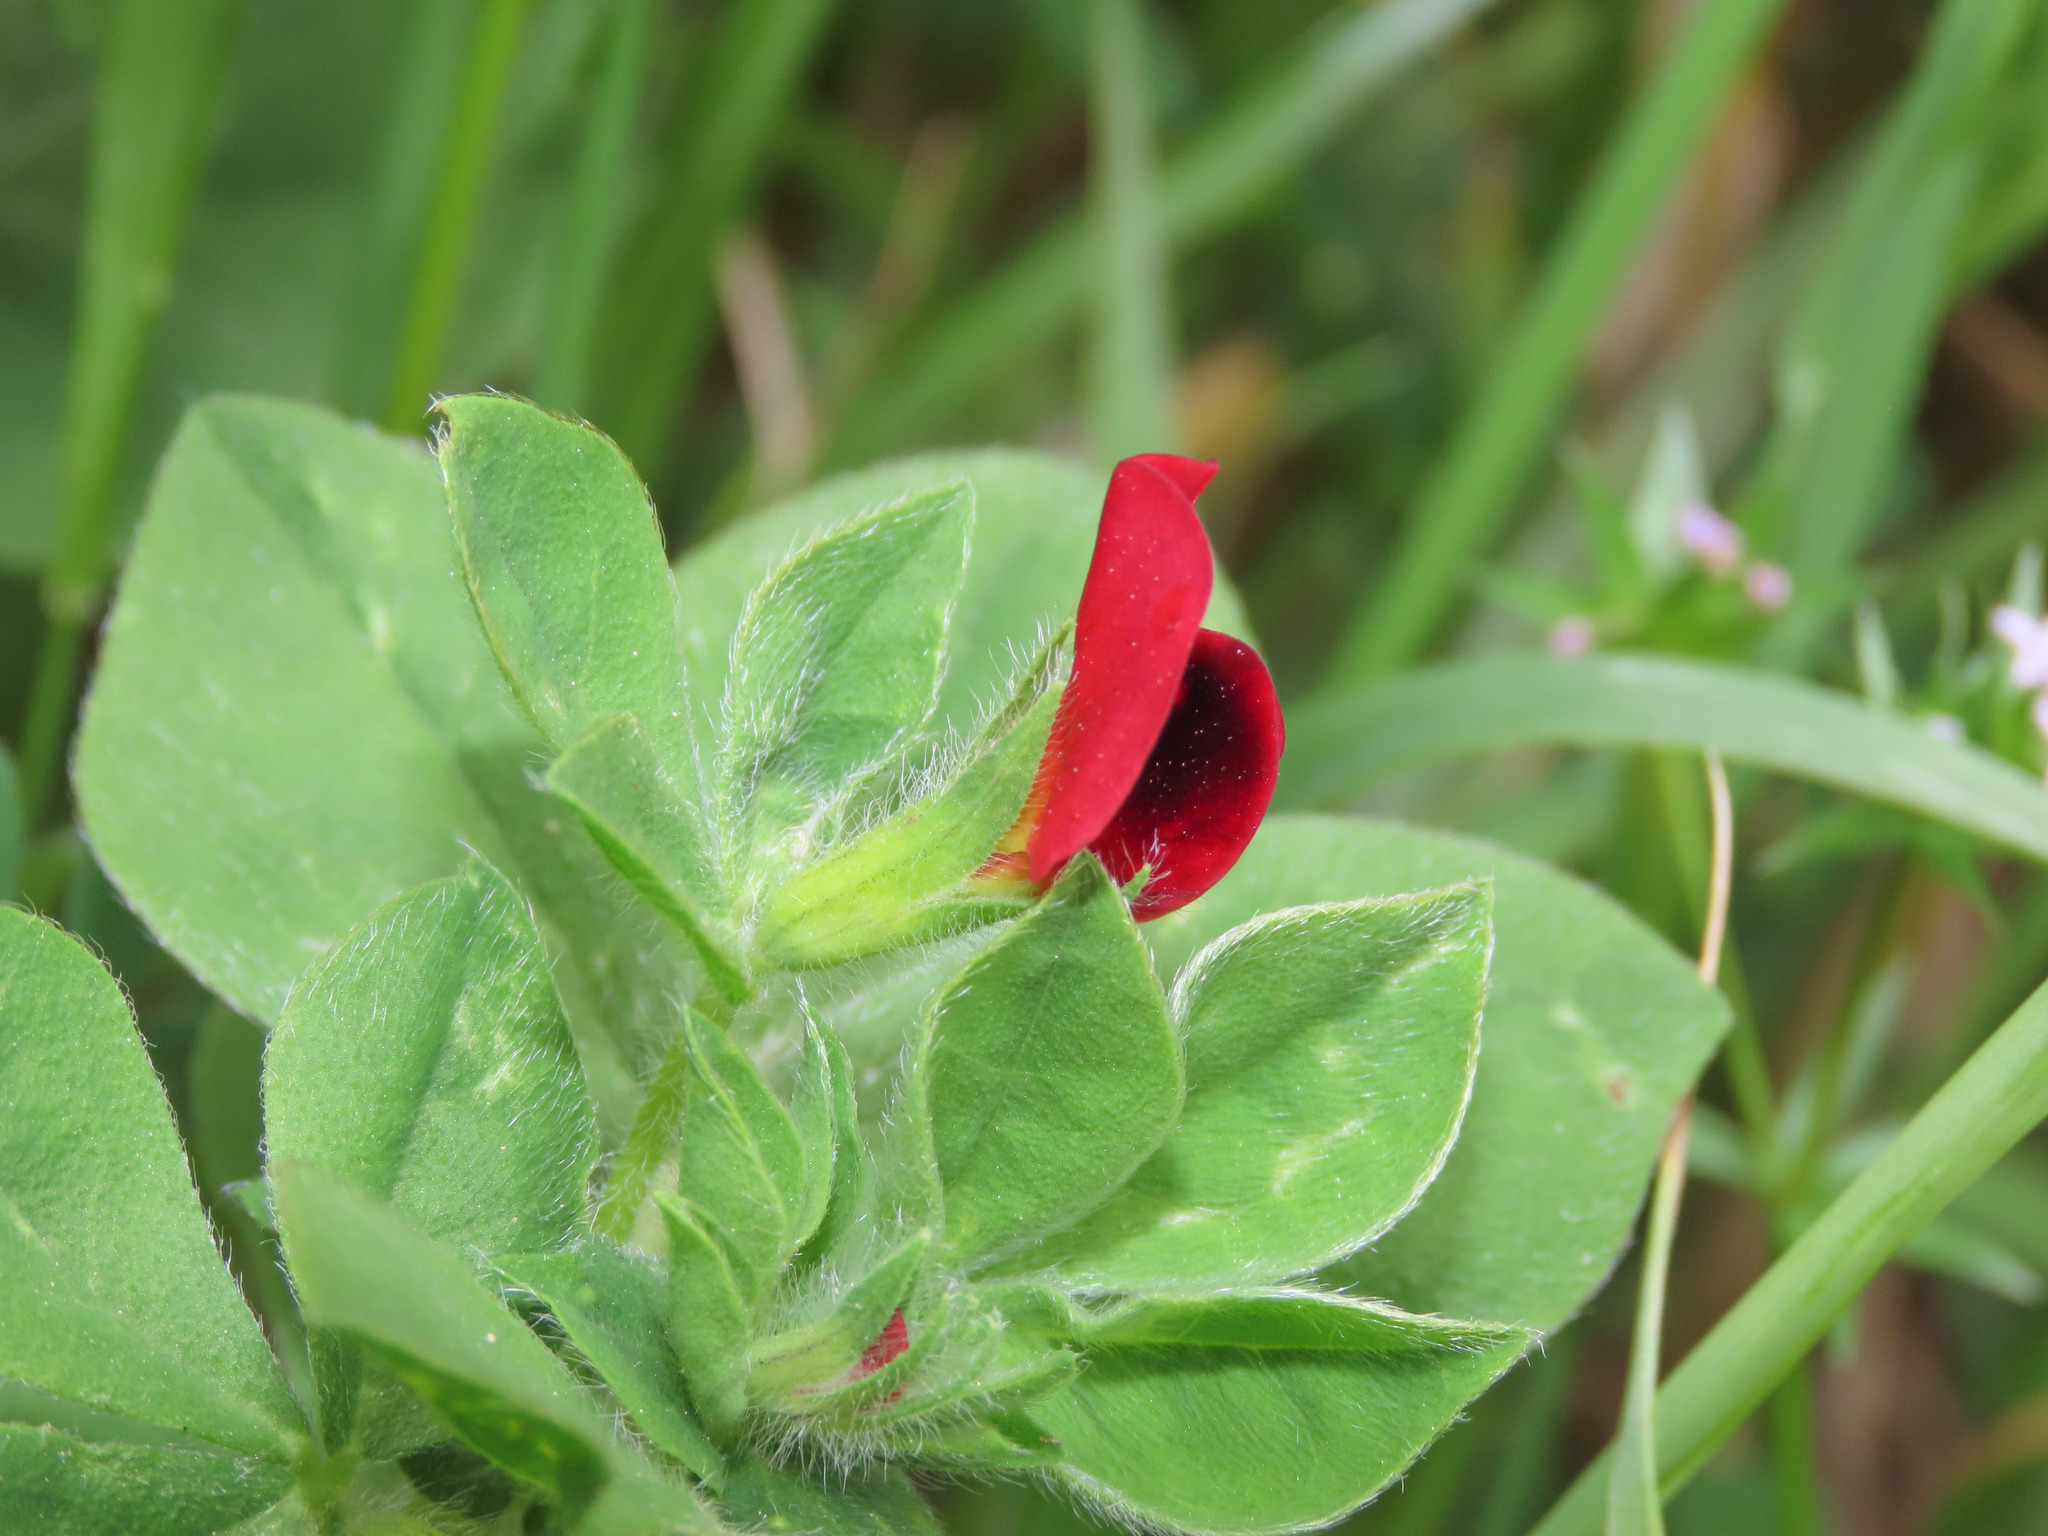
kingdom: Plantae
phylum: Tracheophyta
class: Magnoliopsida
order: Fabales
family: Fabaceae
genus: Lotus
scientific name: Lotus tetragonolobus
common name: Asparagus-pea
